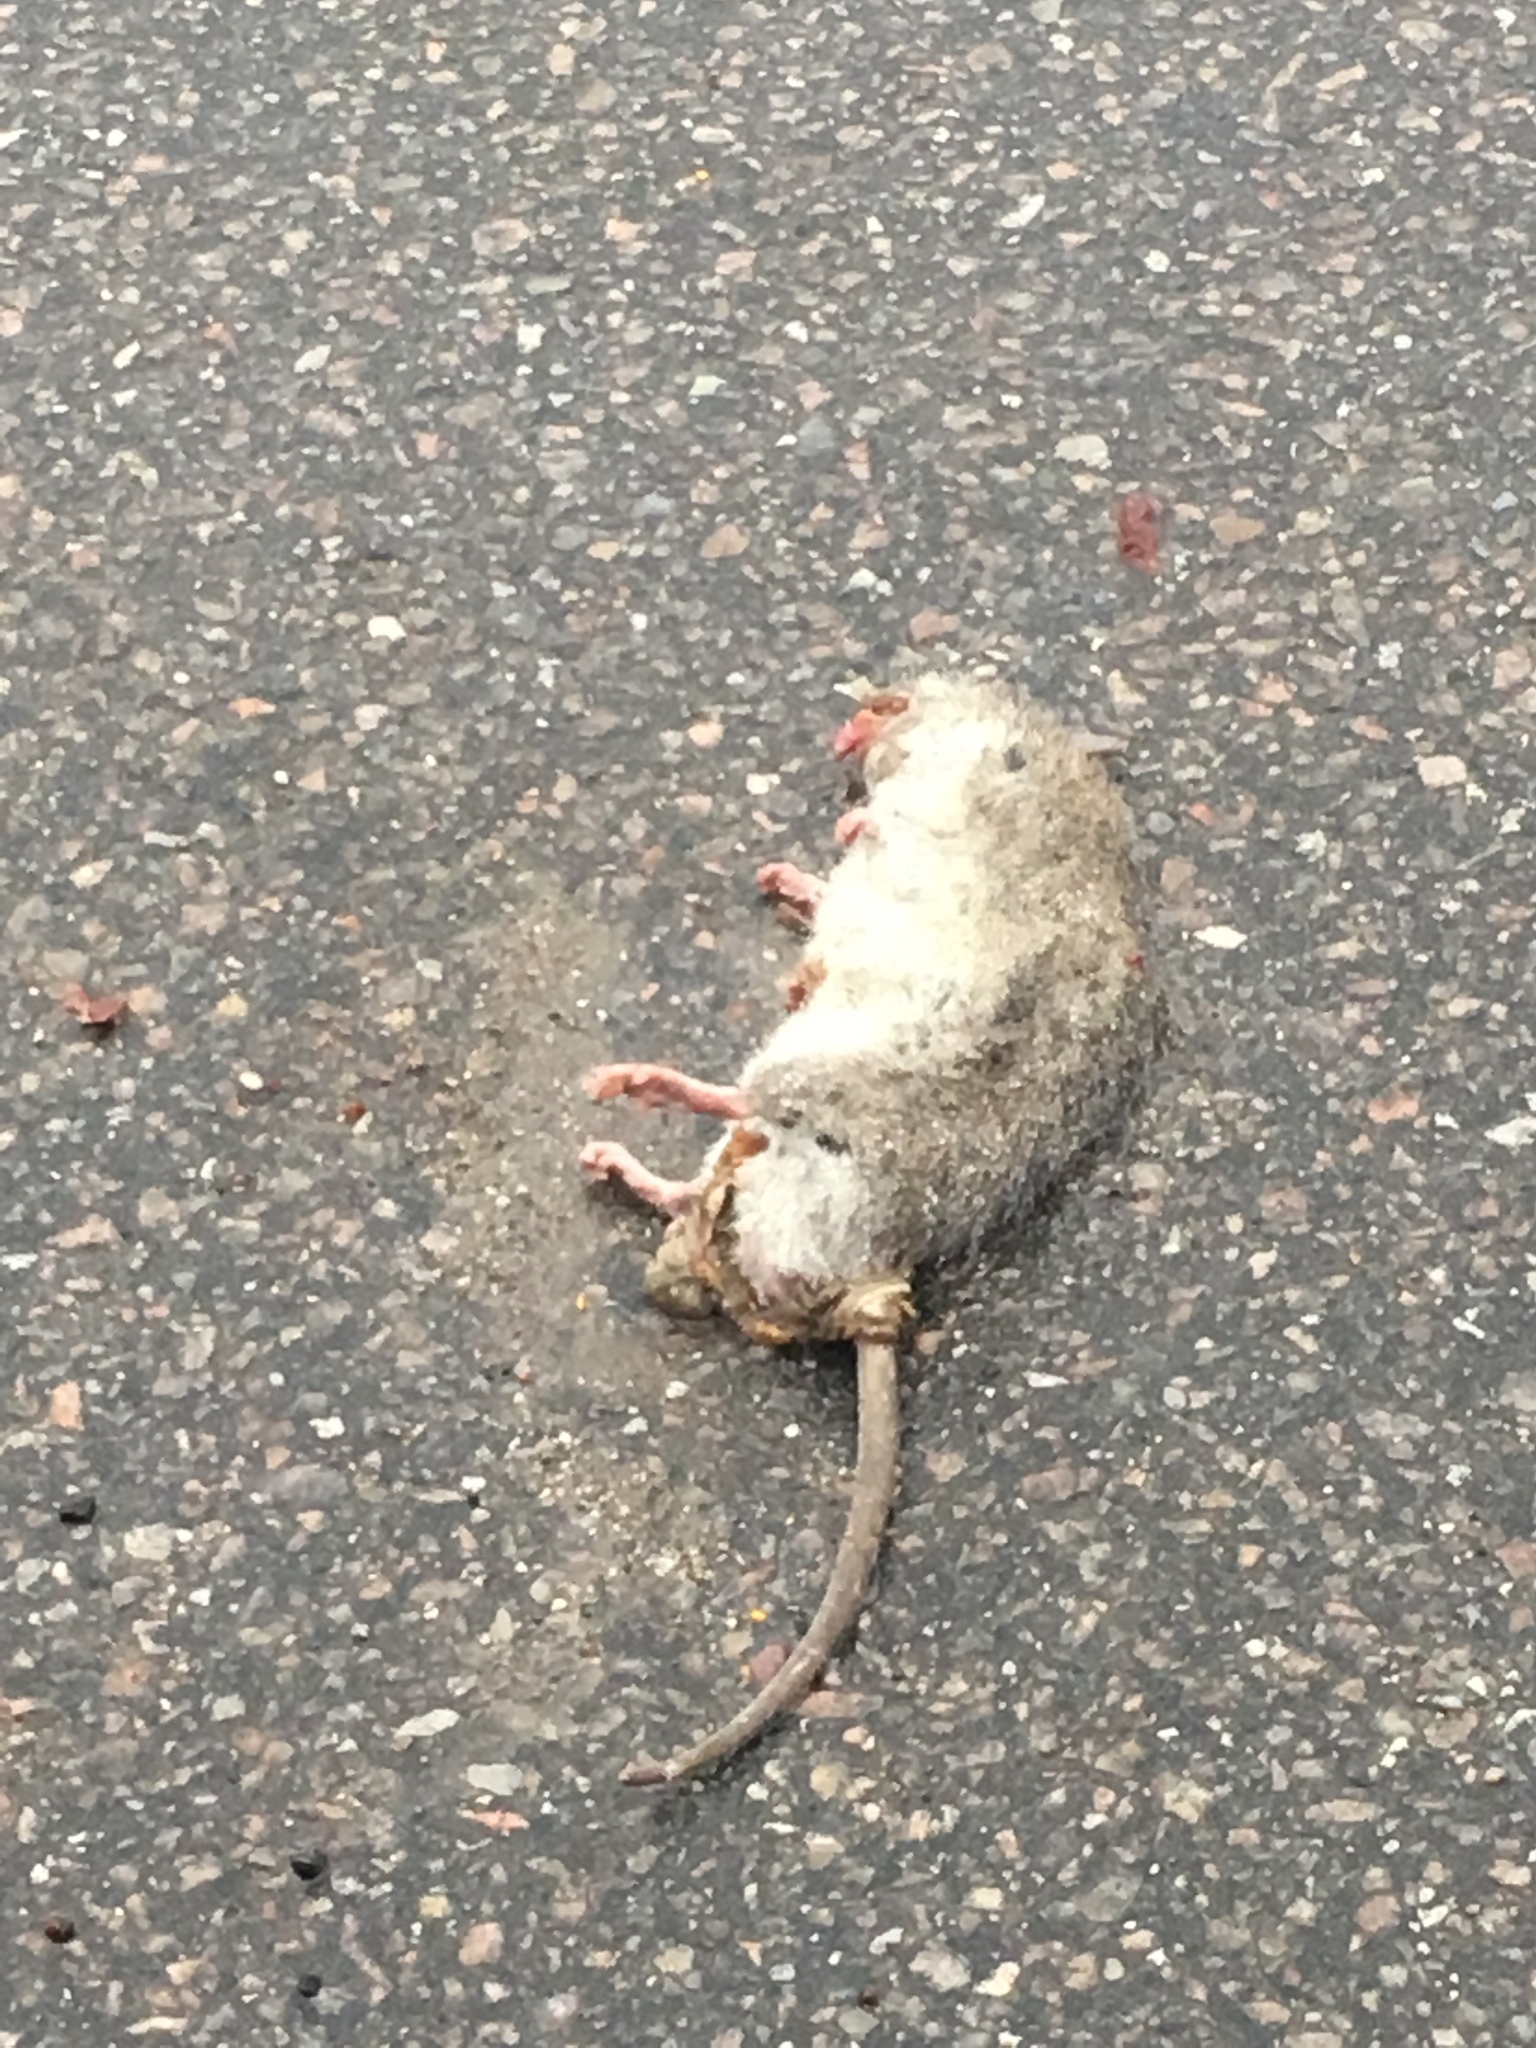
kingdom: Animalia
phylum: Chordata
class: Mammalia
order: Rodentia
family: Muridae
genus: Rattus
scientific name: Rattus norvegicus
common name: Brown rat
